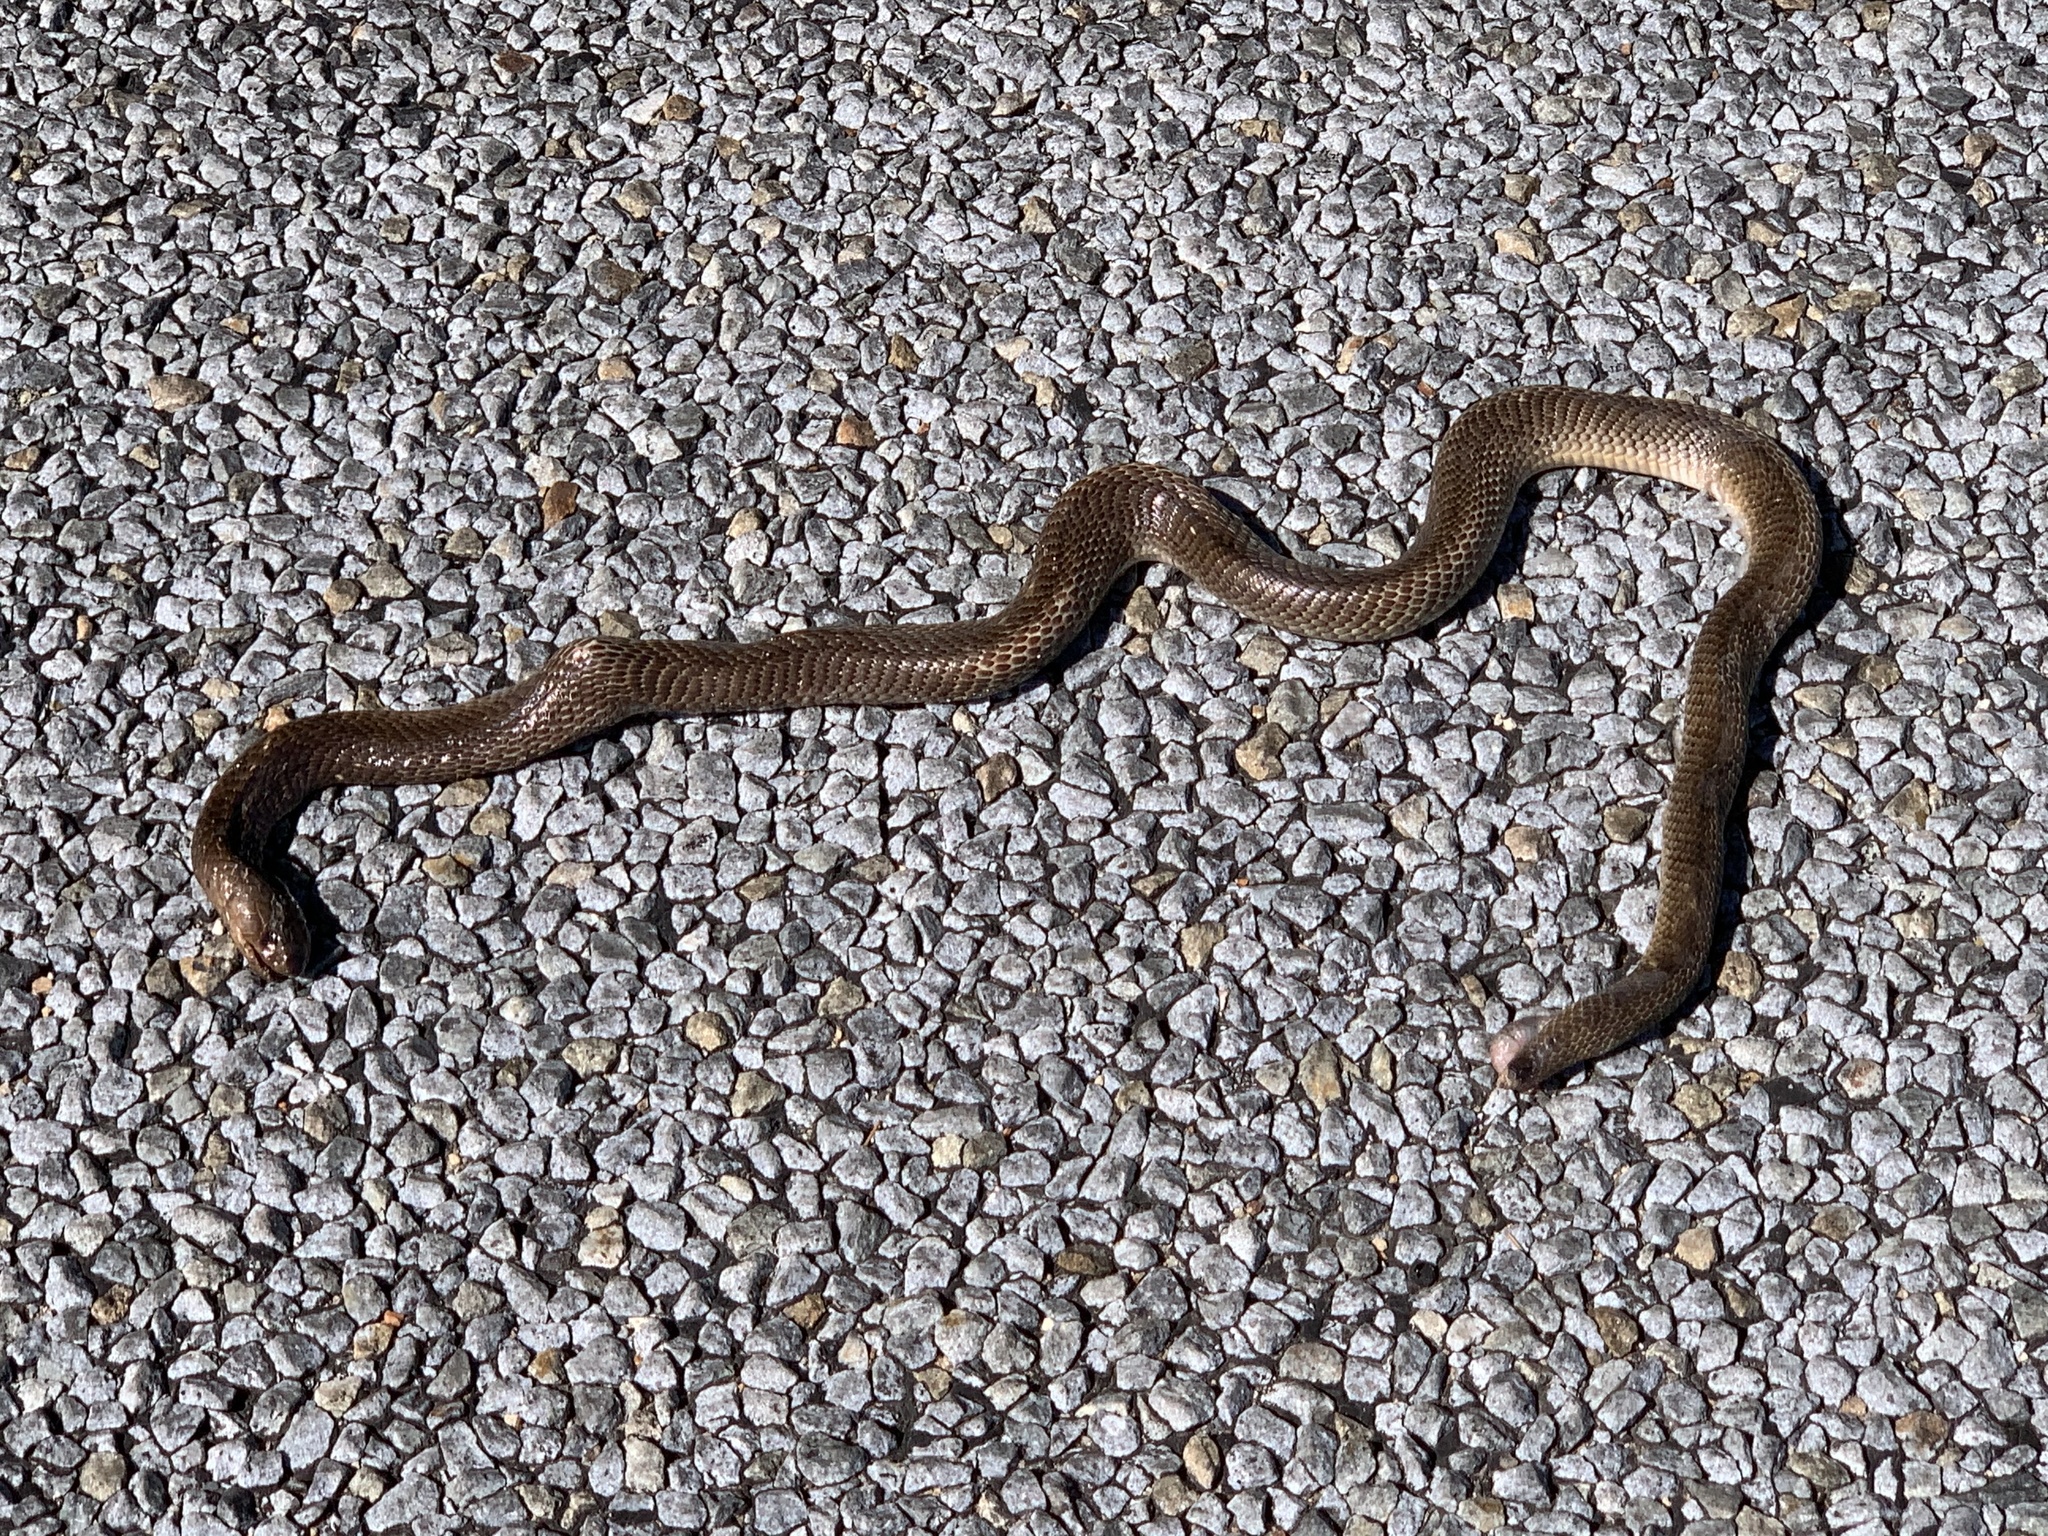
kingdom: Animalia
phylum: Chordata
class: Squamata
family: Elapidae
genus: Naja
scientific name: Naja nivea
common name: Cape cobra
